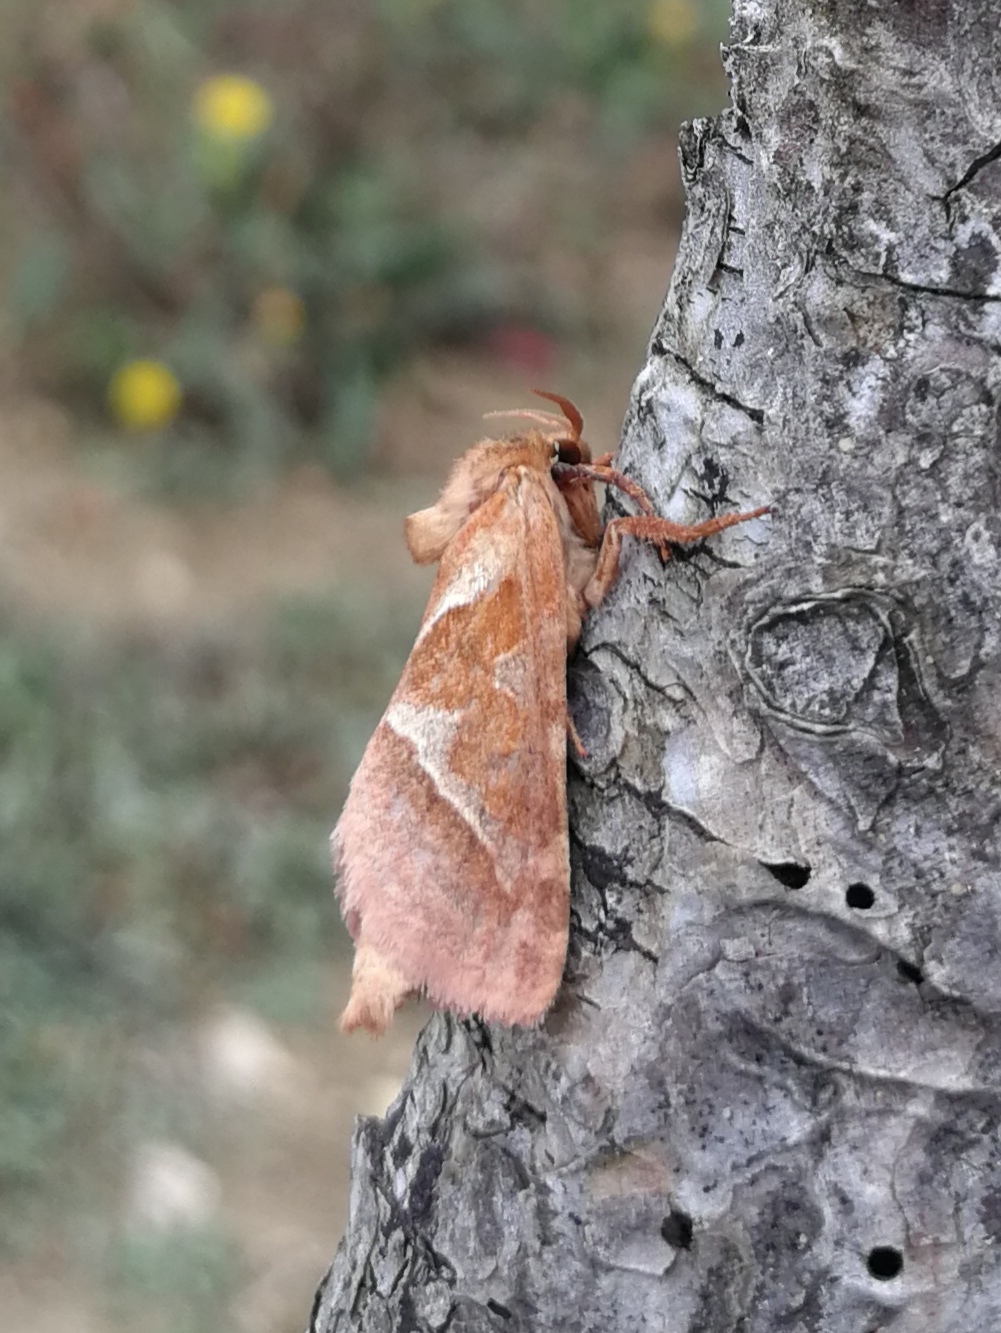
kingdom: Animalia
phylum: Arthropoda
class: Insecta
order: Lepidoptera
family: Hepialidae
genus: Triodia
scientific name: Triodia sylvina
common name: Orange swift
